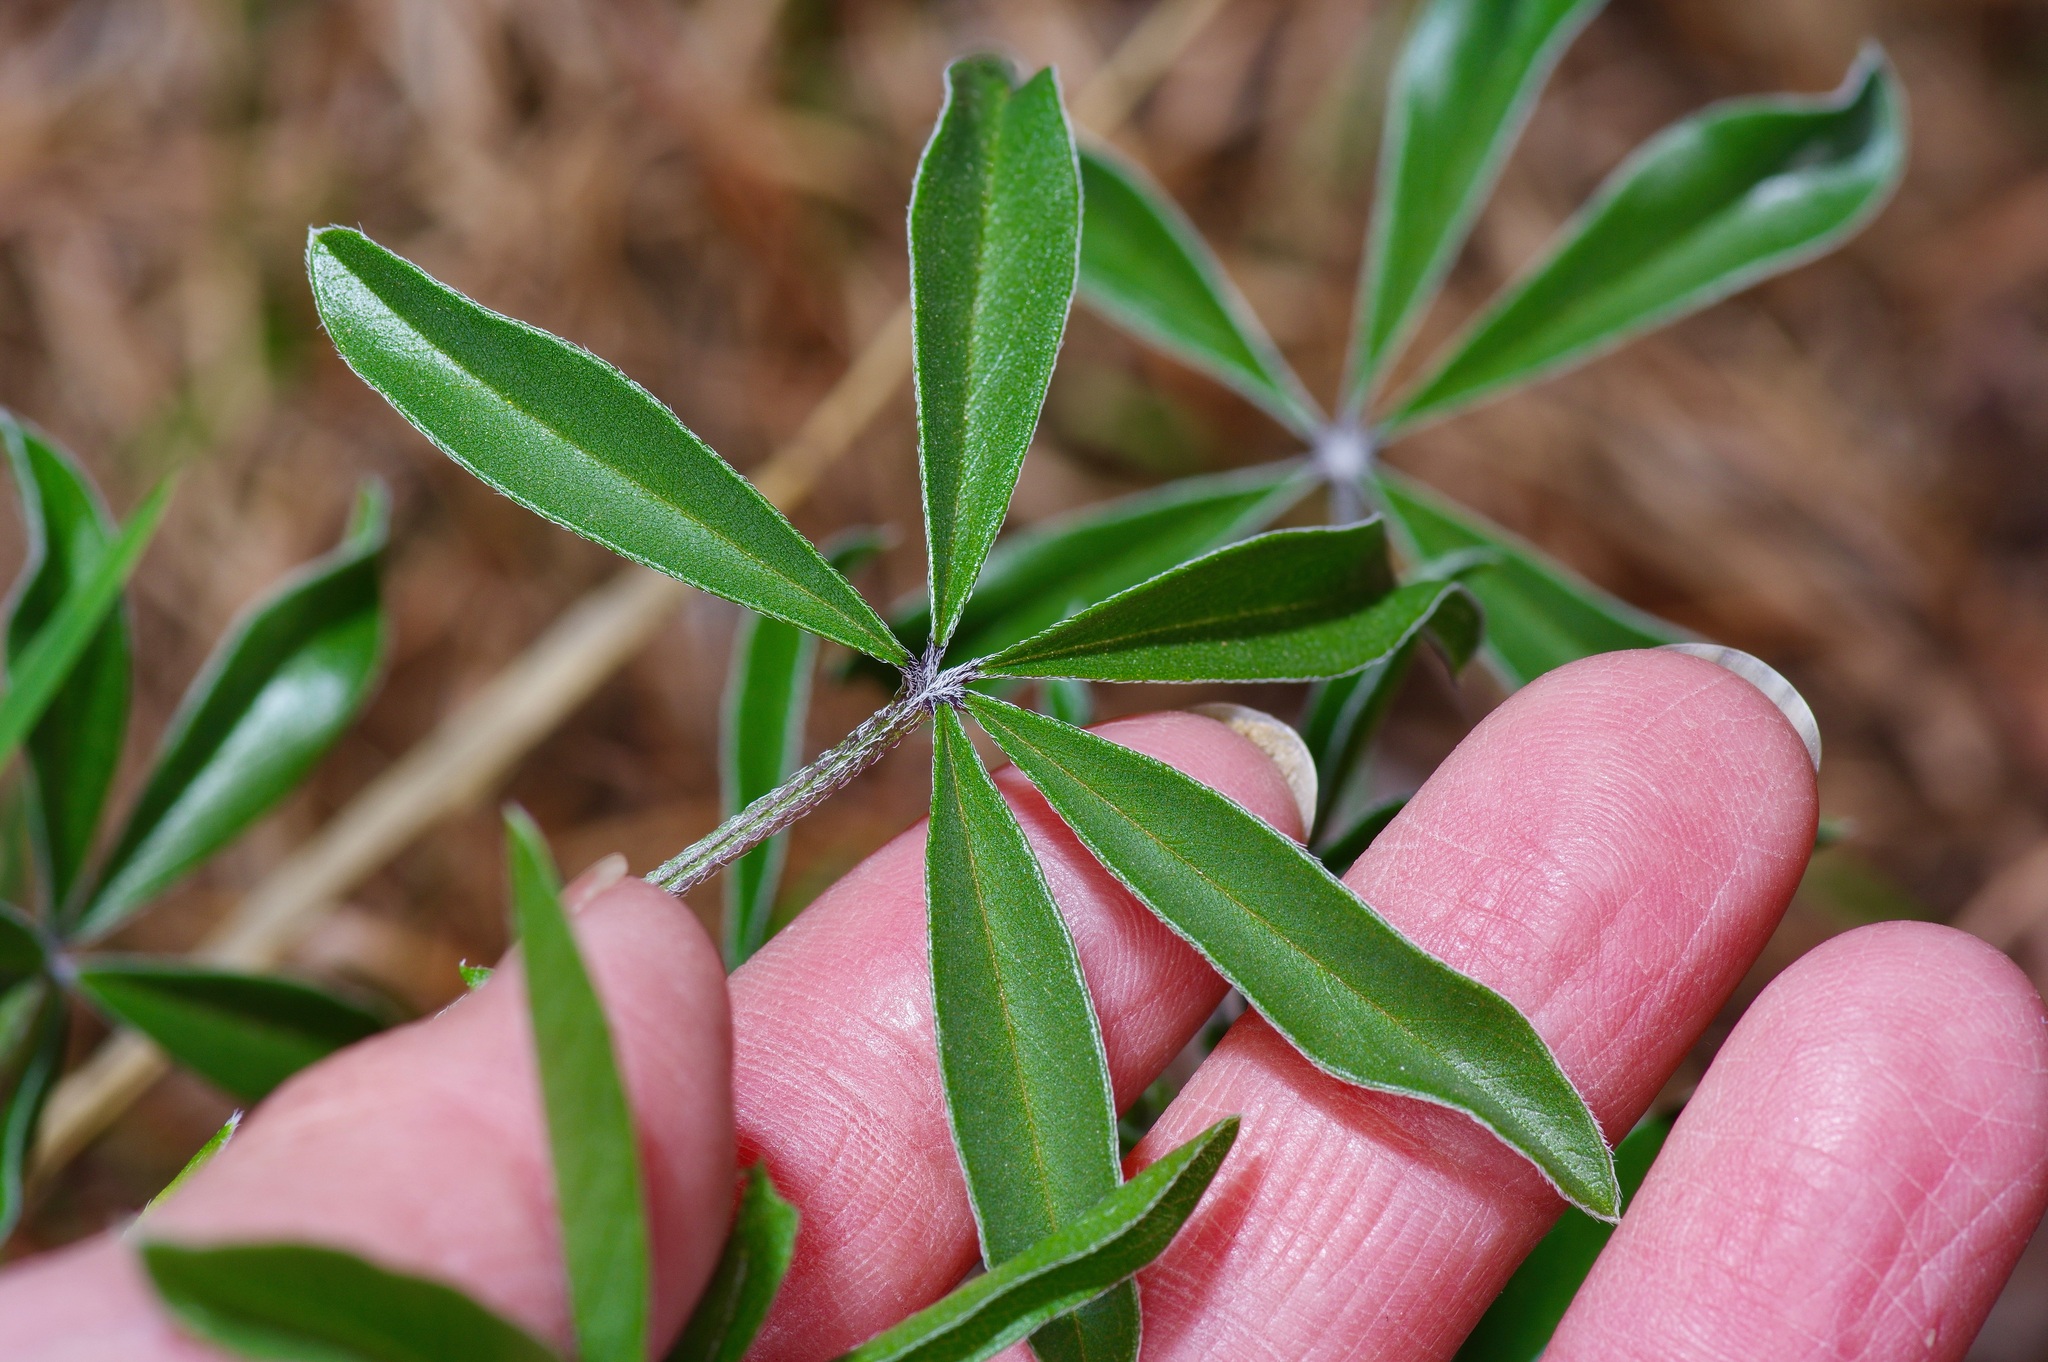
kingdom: Plantae
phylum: Tracheophyta
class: Magnoliopsida
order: Fabales
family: Fabaceae
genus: Pediomelum
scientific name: Pediomelum latestipulatum
